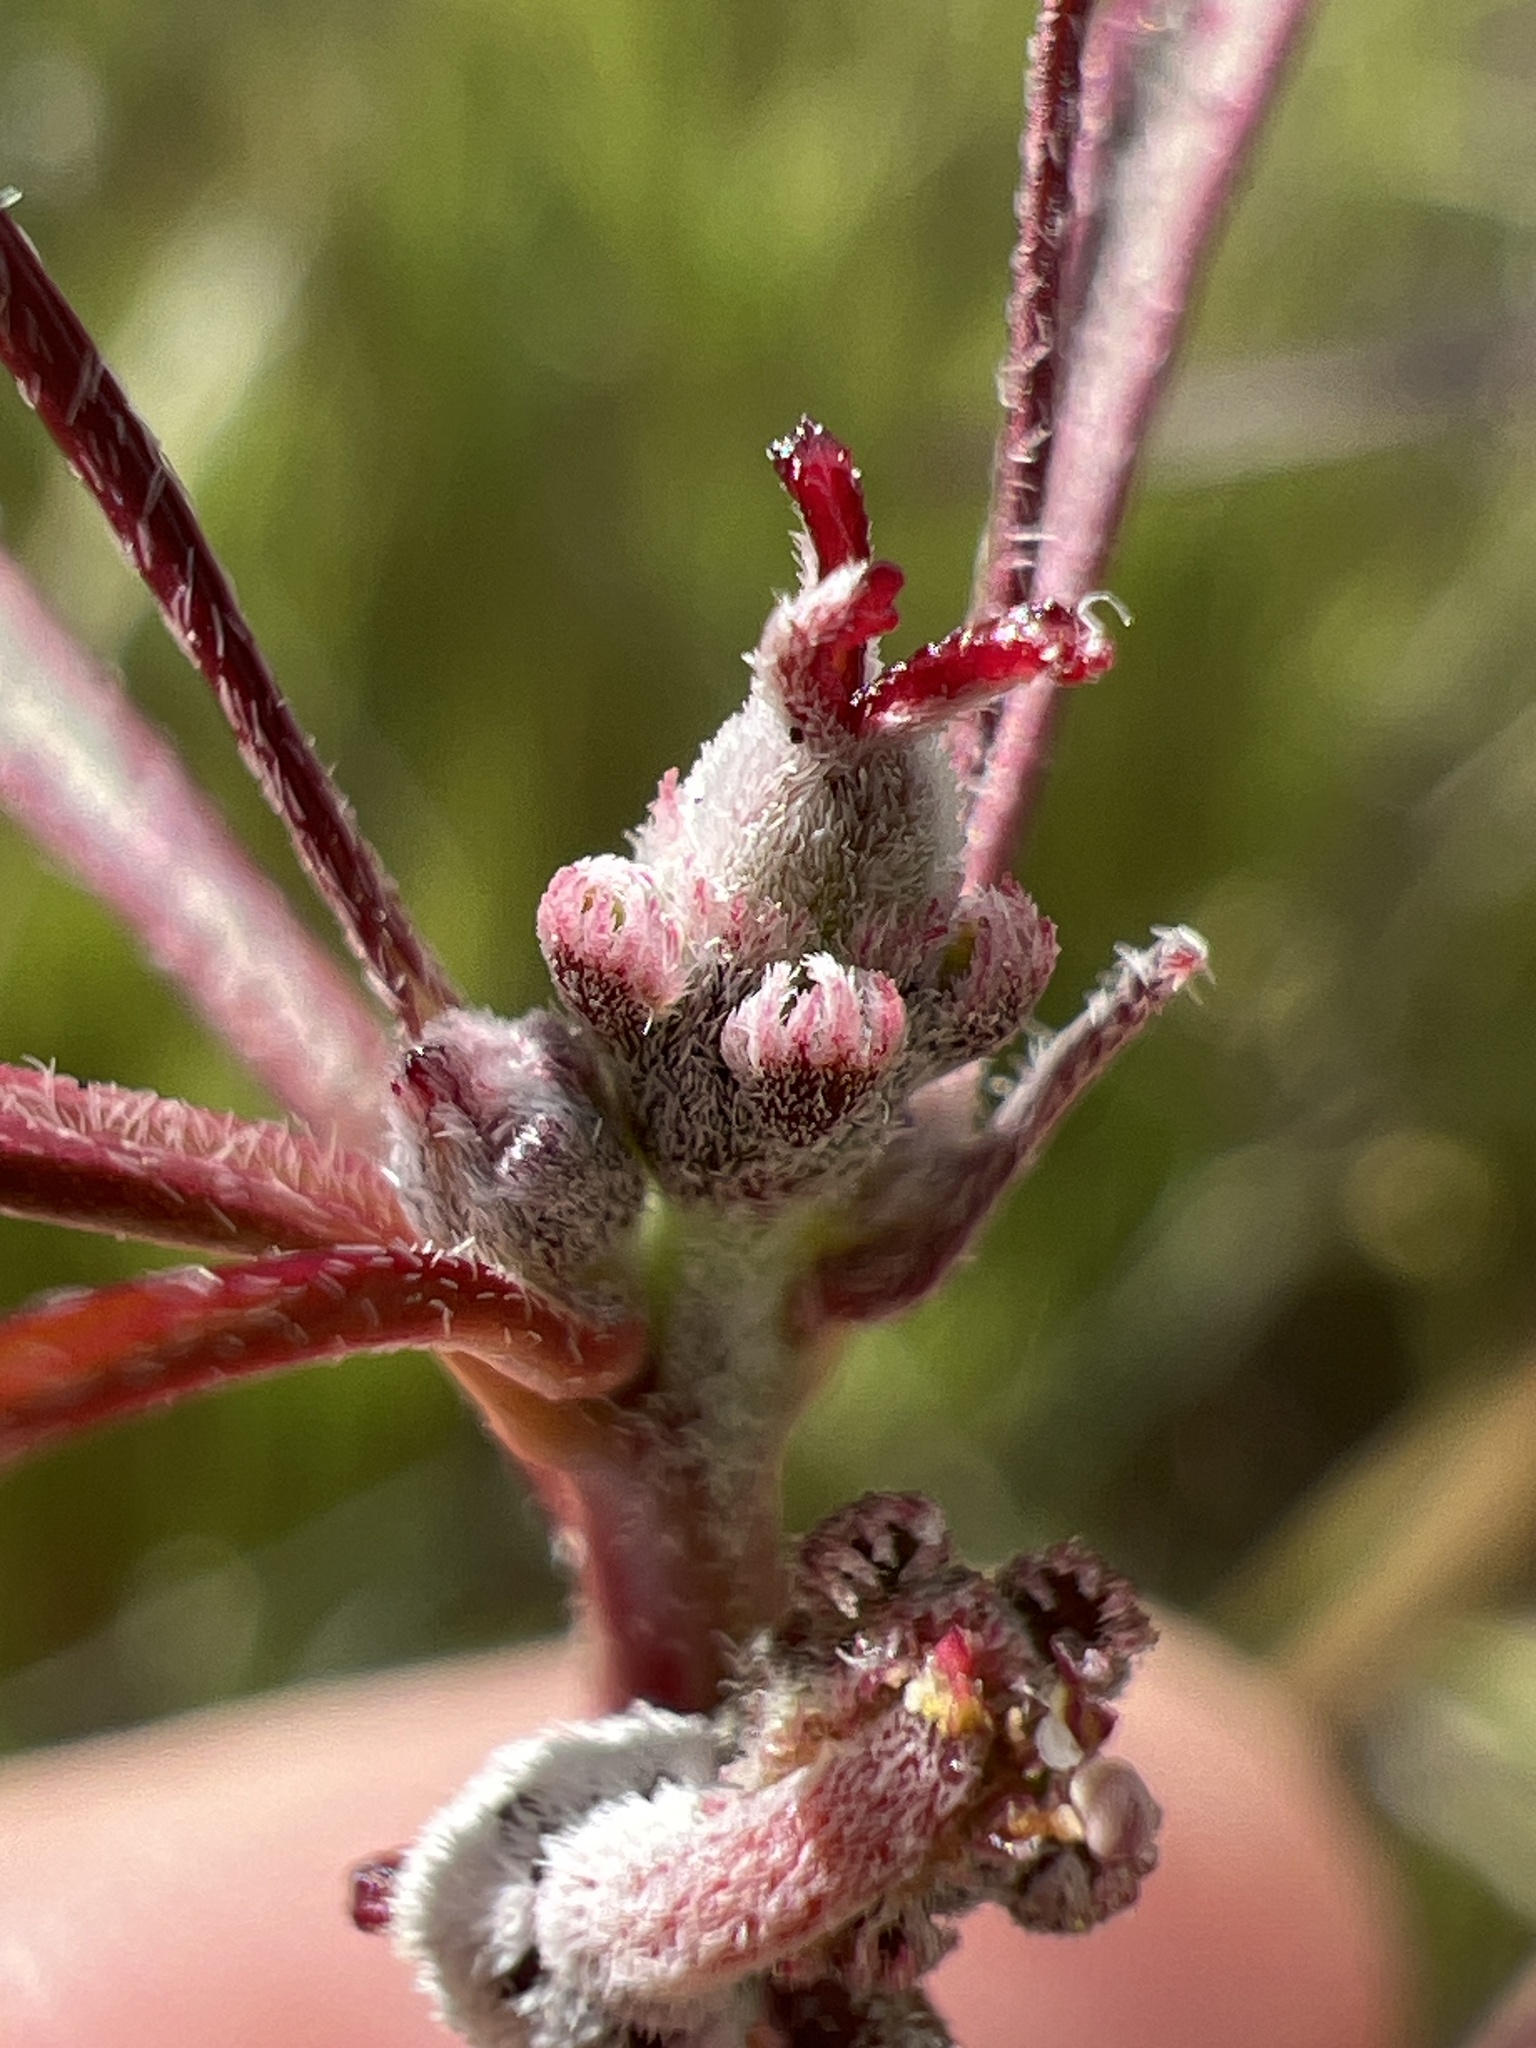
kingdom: Plantae
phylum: Tracheophyta
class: Magnoliopsida
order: Malpighiales
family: Euphorbiaceae
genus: Euphorbia
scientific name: Euphorbia eriantha
